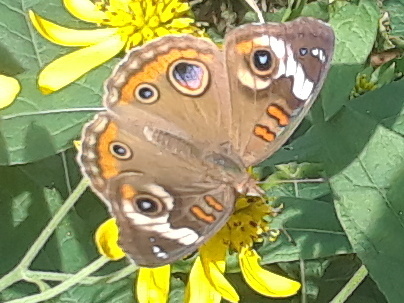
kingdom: Animalia
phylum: Arthropoda
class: Insecta
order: Lepidoptera
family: Nymphalidae
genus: Junonia
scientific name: Junonia coenia
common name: Common buckeye
